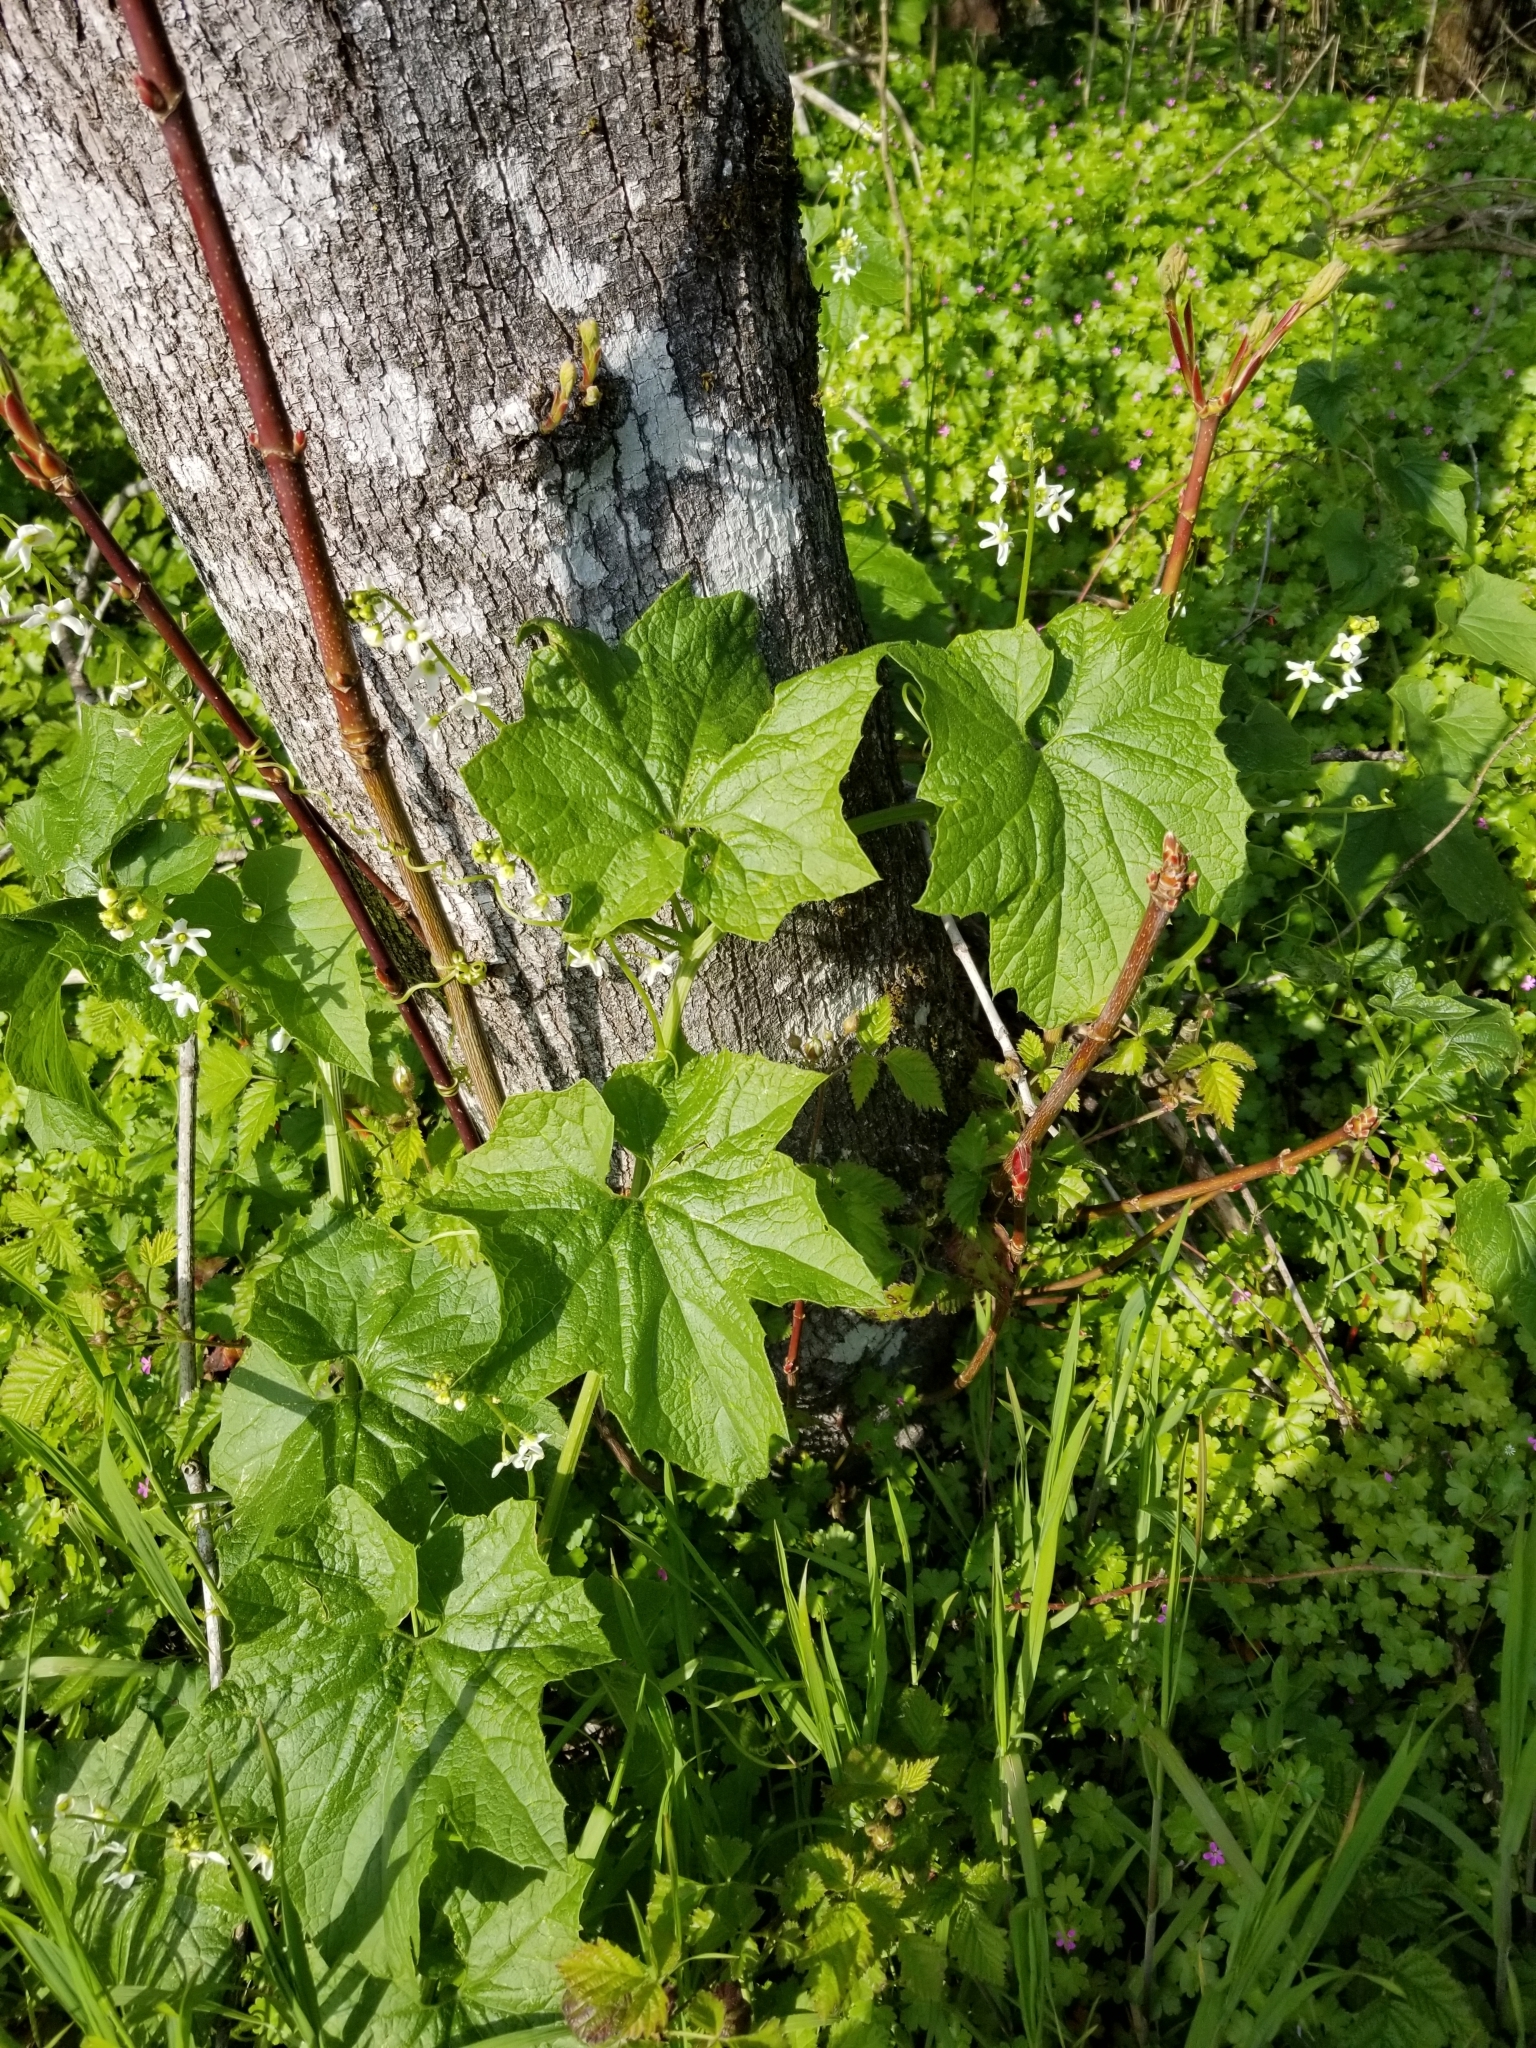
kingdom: Plantae
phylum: Tracheophyta
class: Magnoliopsida
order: Cucurbitales
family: Cucurbitaceae
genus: Marah
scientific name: Marah oregana
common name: Coastal manroot
